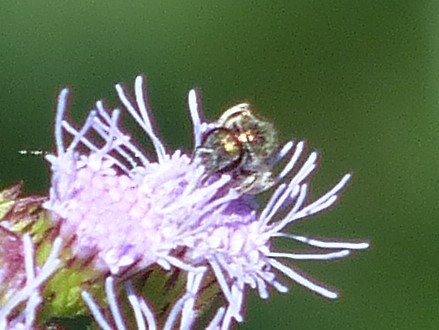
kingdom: Animalia
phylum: Arthropoda
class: Insecta
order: Hymenoptera
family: Halictidae
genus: Dialictus
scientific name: Dialictus
